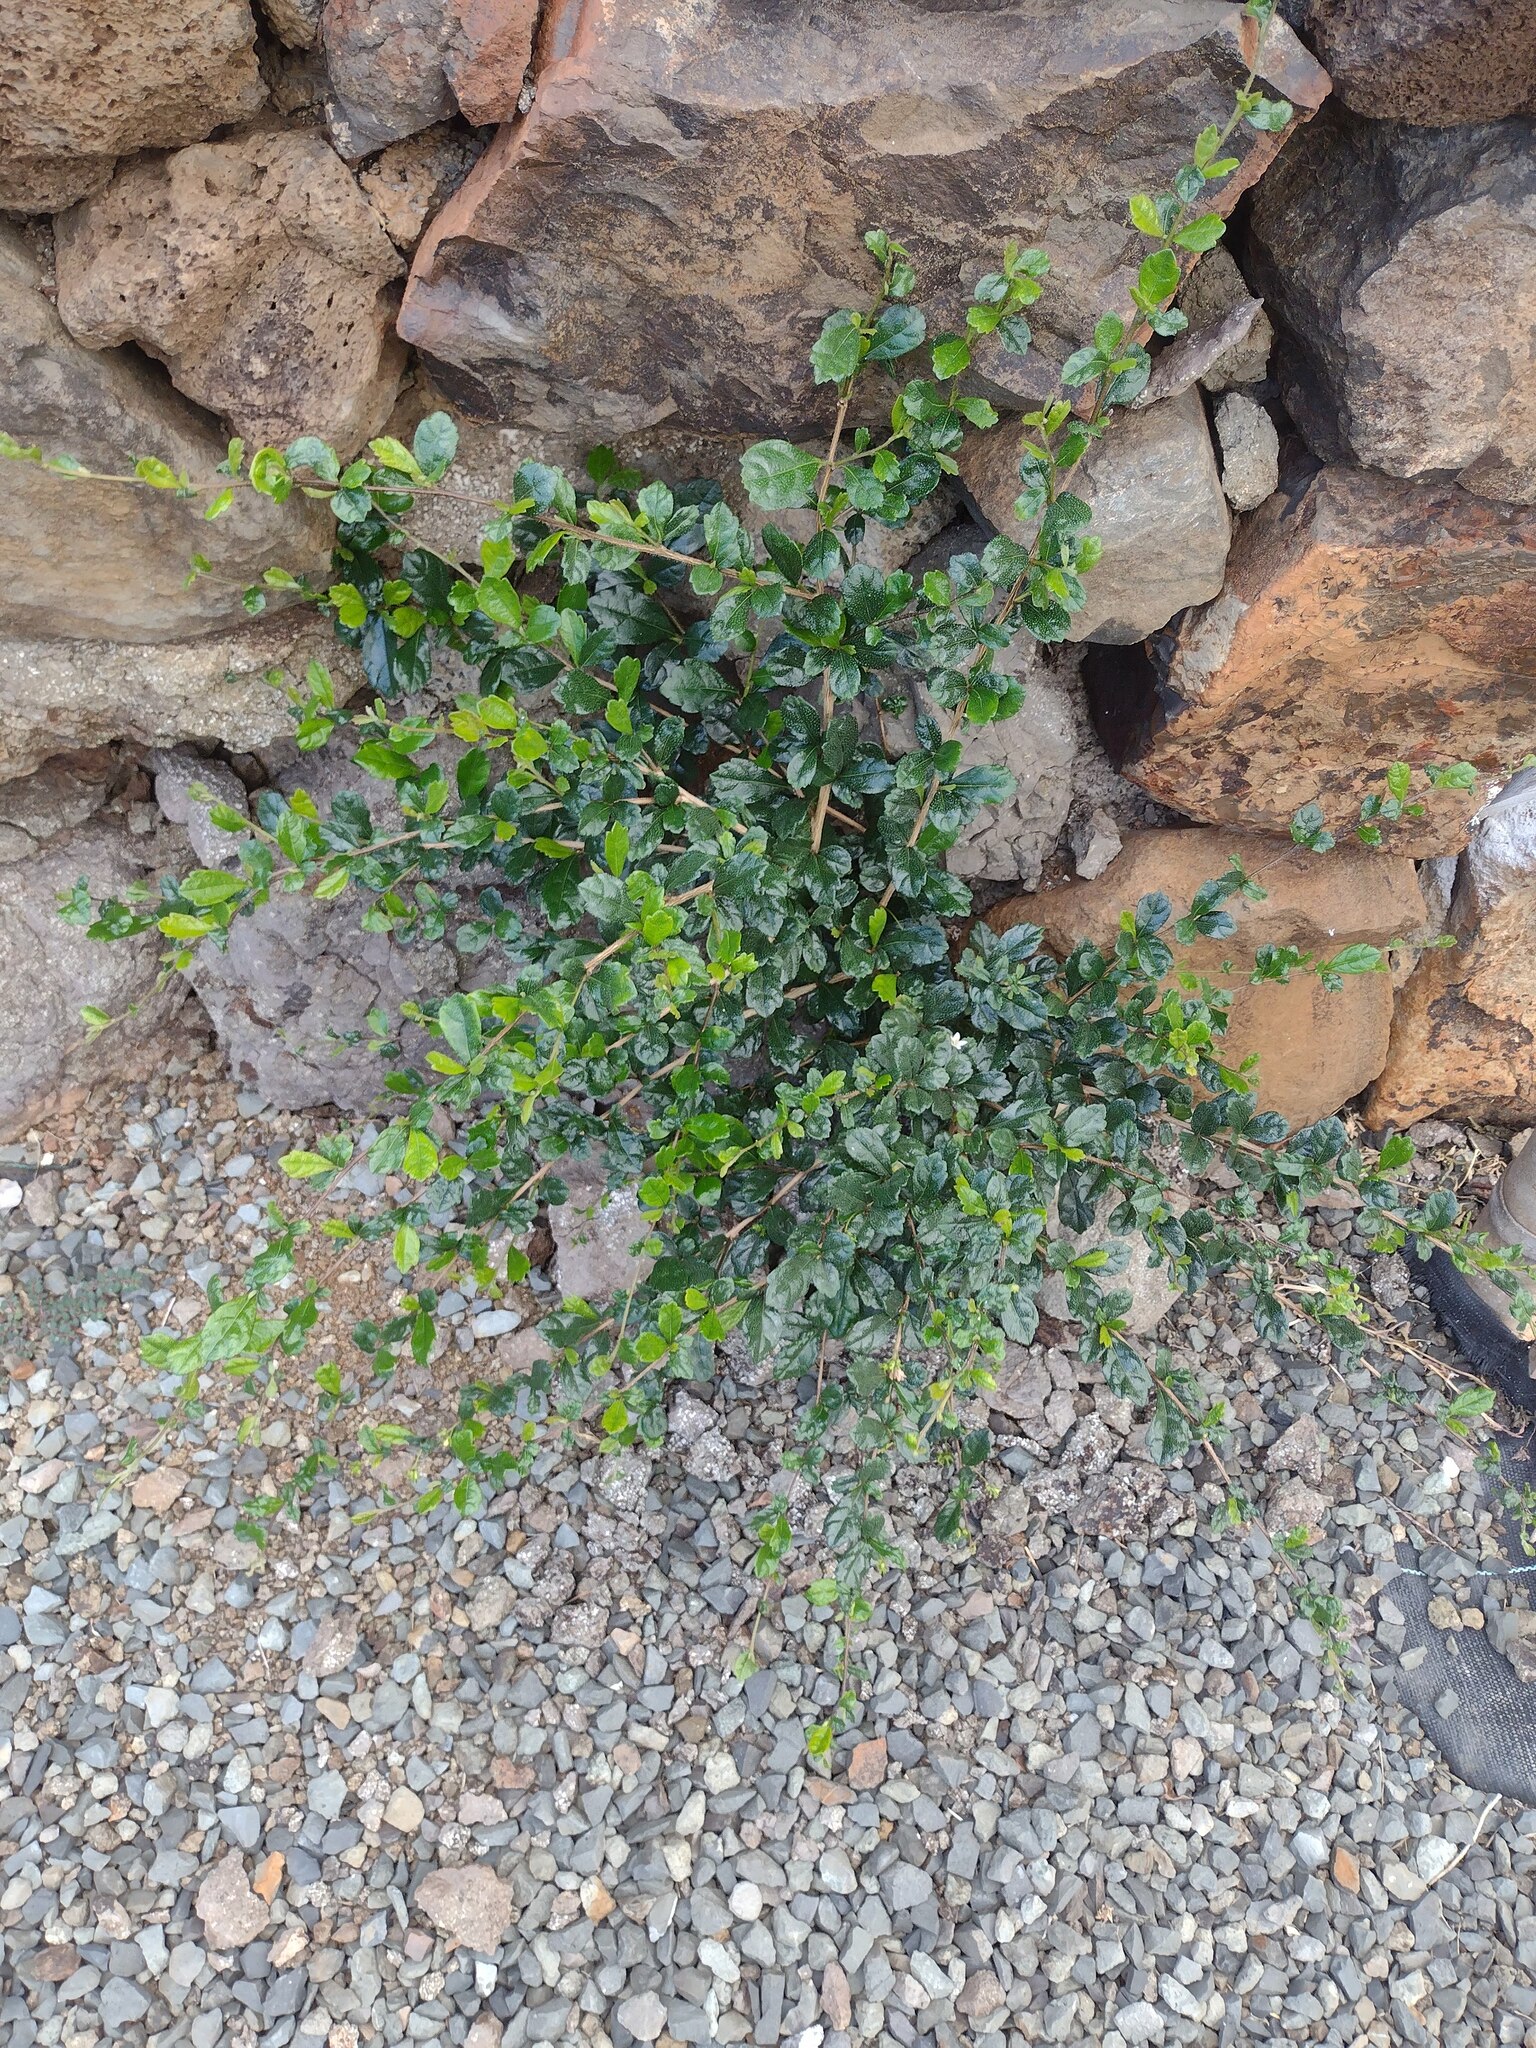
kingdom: Plantae
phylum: Tracheophyta
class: Magnoliopsida
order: Boraginales
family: Ehretiaceae
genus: Ehretia
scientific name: Ehretia microphylla
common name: Fukien-tea
